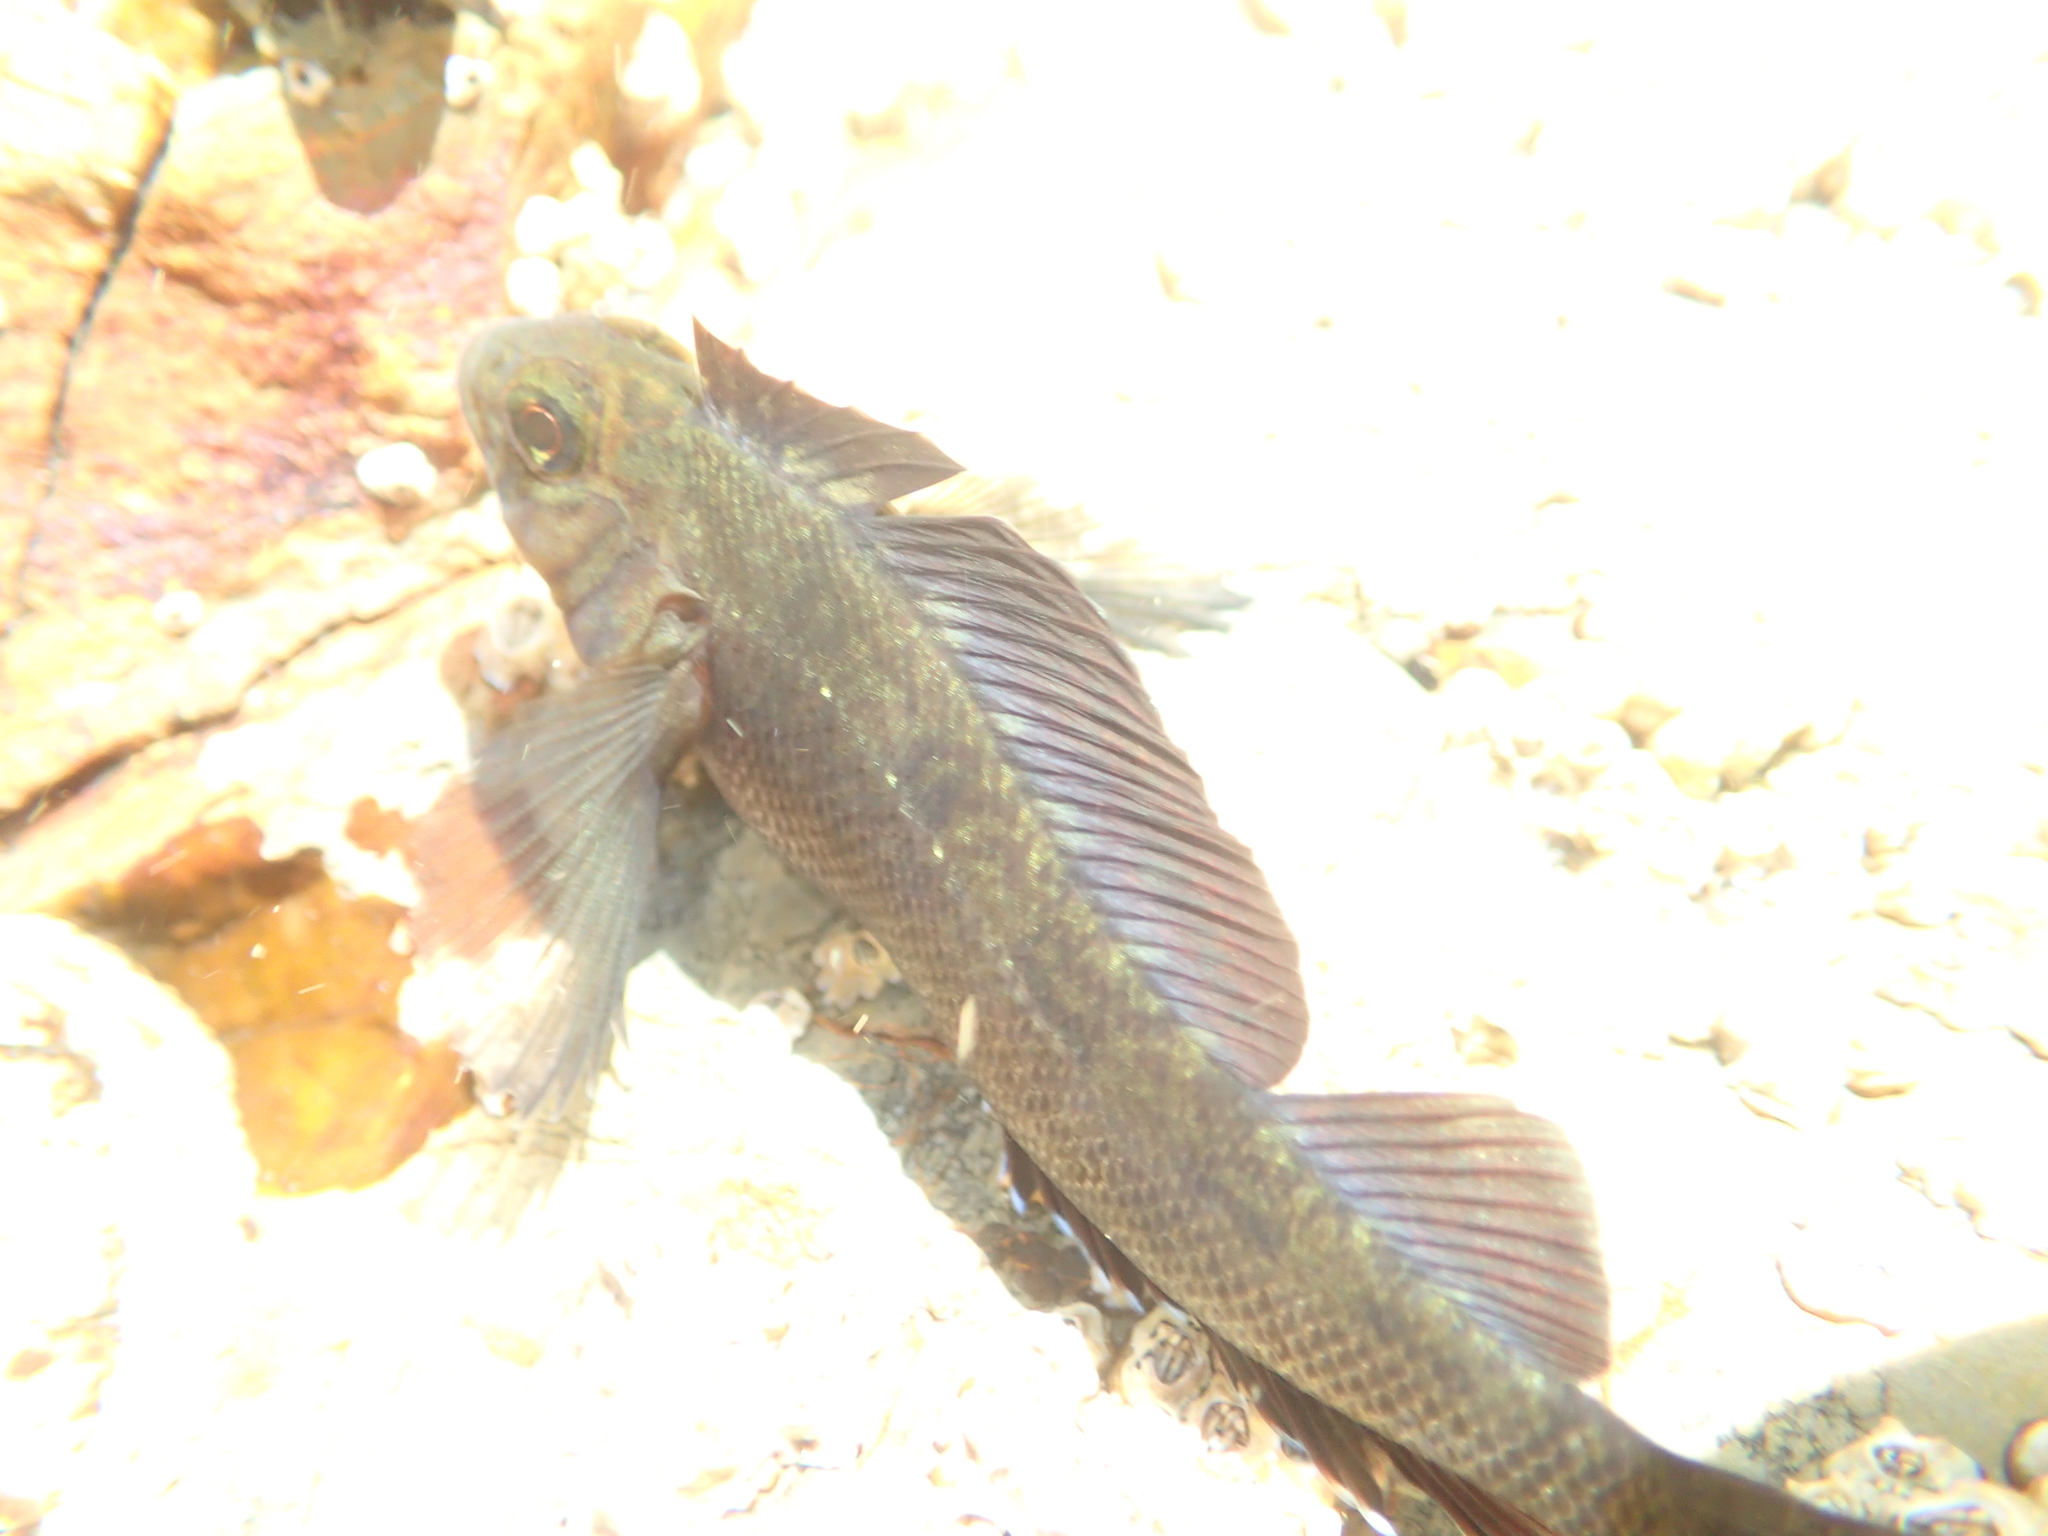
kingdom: Animalia
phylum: Chordata
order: Perciformes
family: Tripterygiidae
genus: Forsterygion
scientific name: Forsterygion lapillum
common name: Common triplefin
